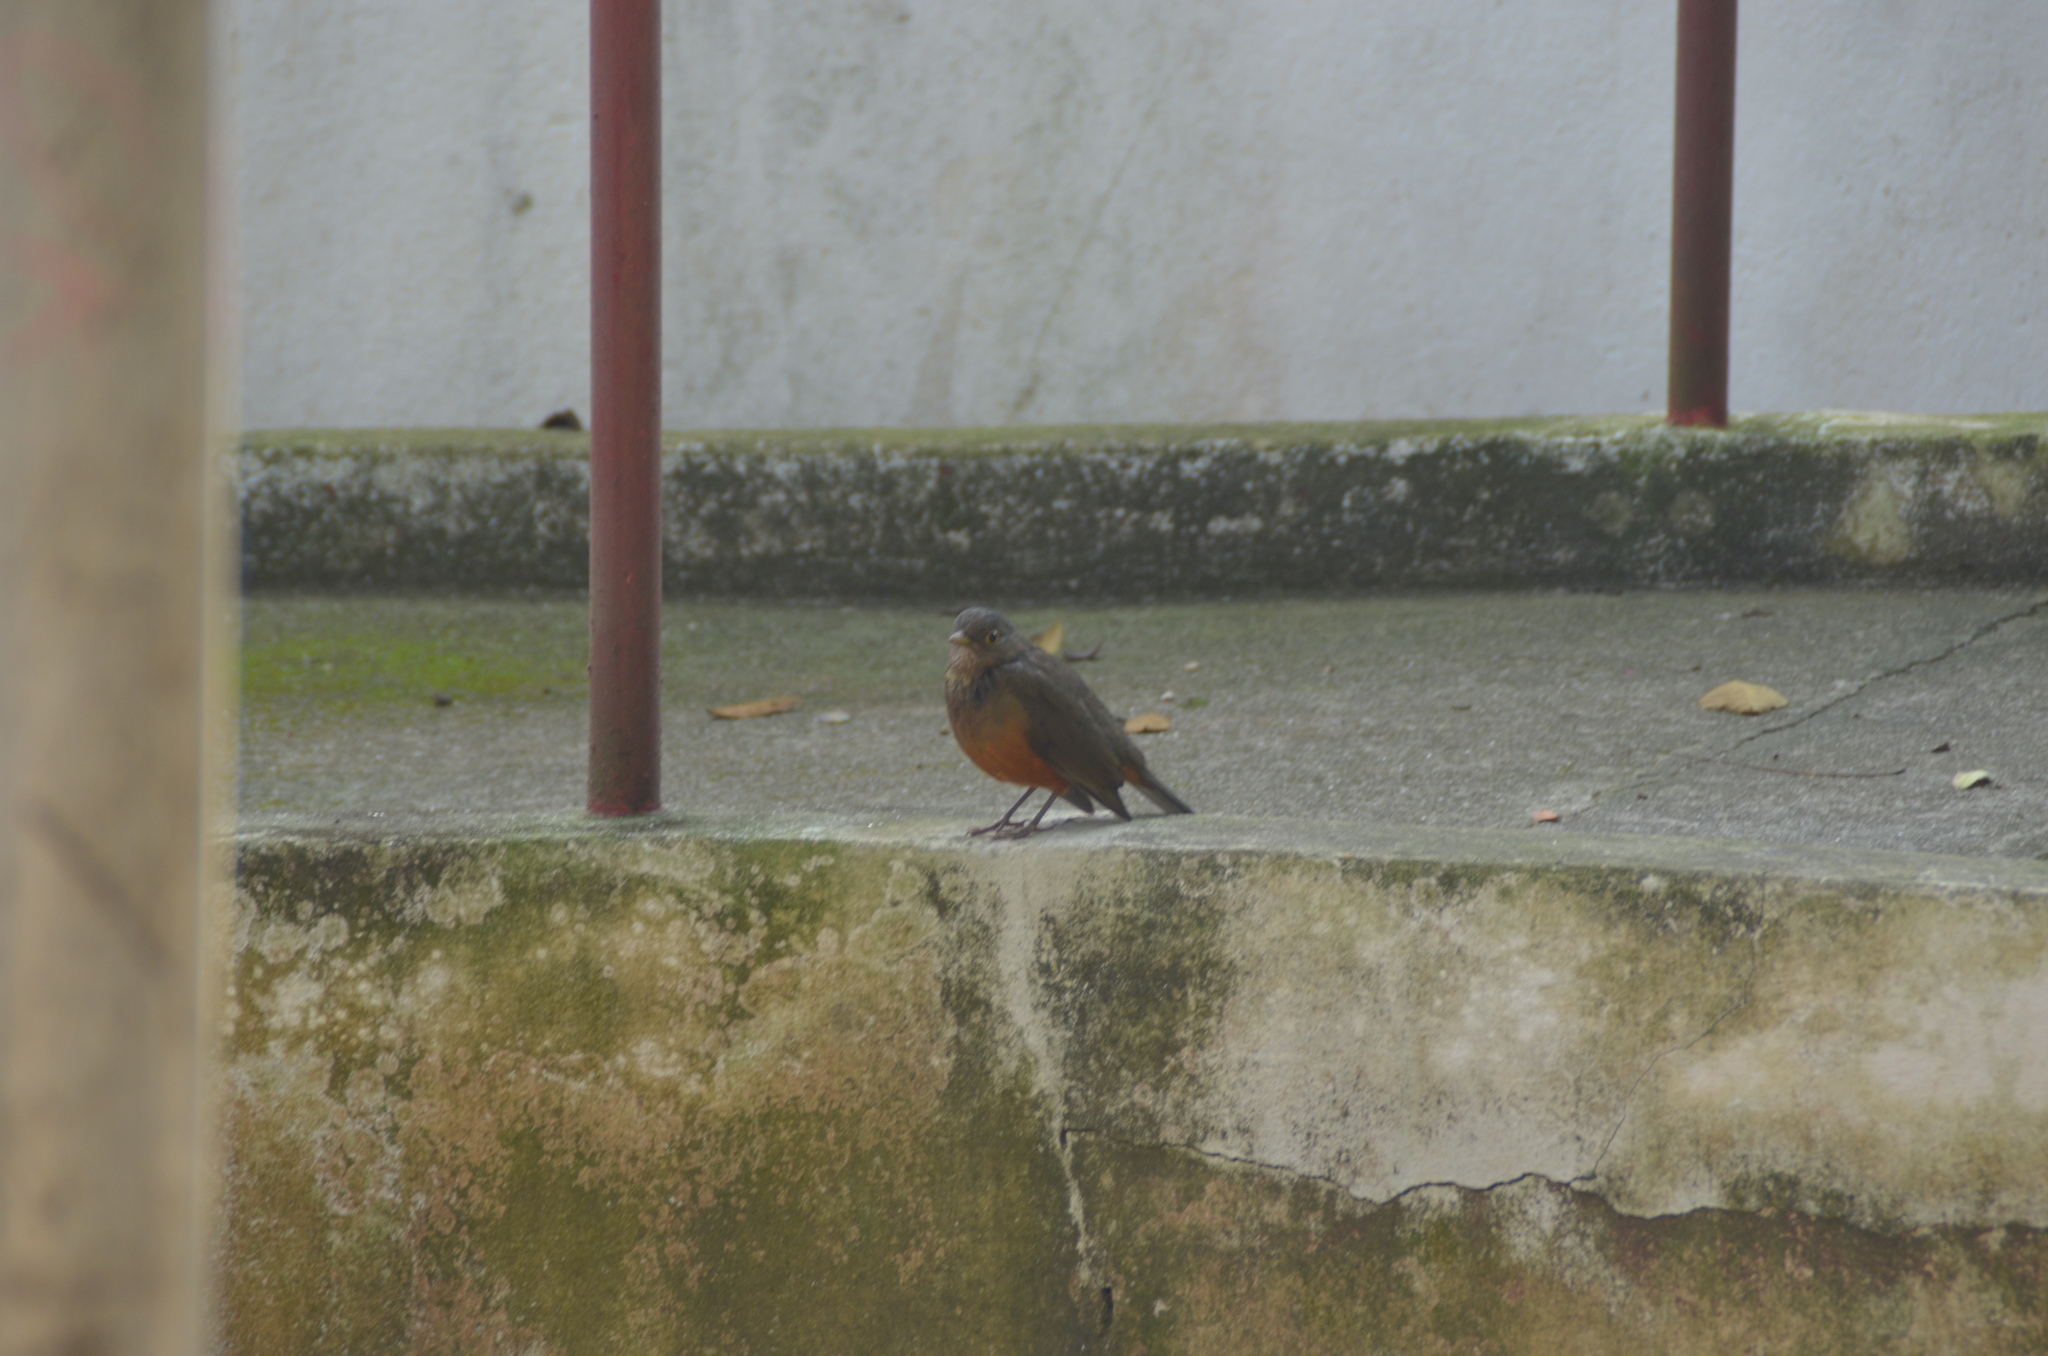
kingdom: Animalia
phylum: Chordata
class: Aves
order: Passeriformes
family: Turdidae
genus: Turdus
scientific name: Turdus rufiventris
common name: Rufous-bellied thrush
